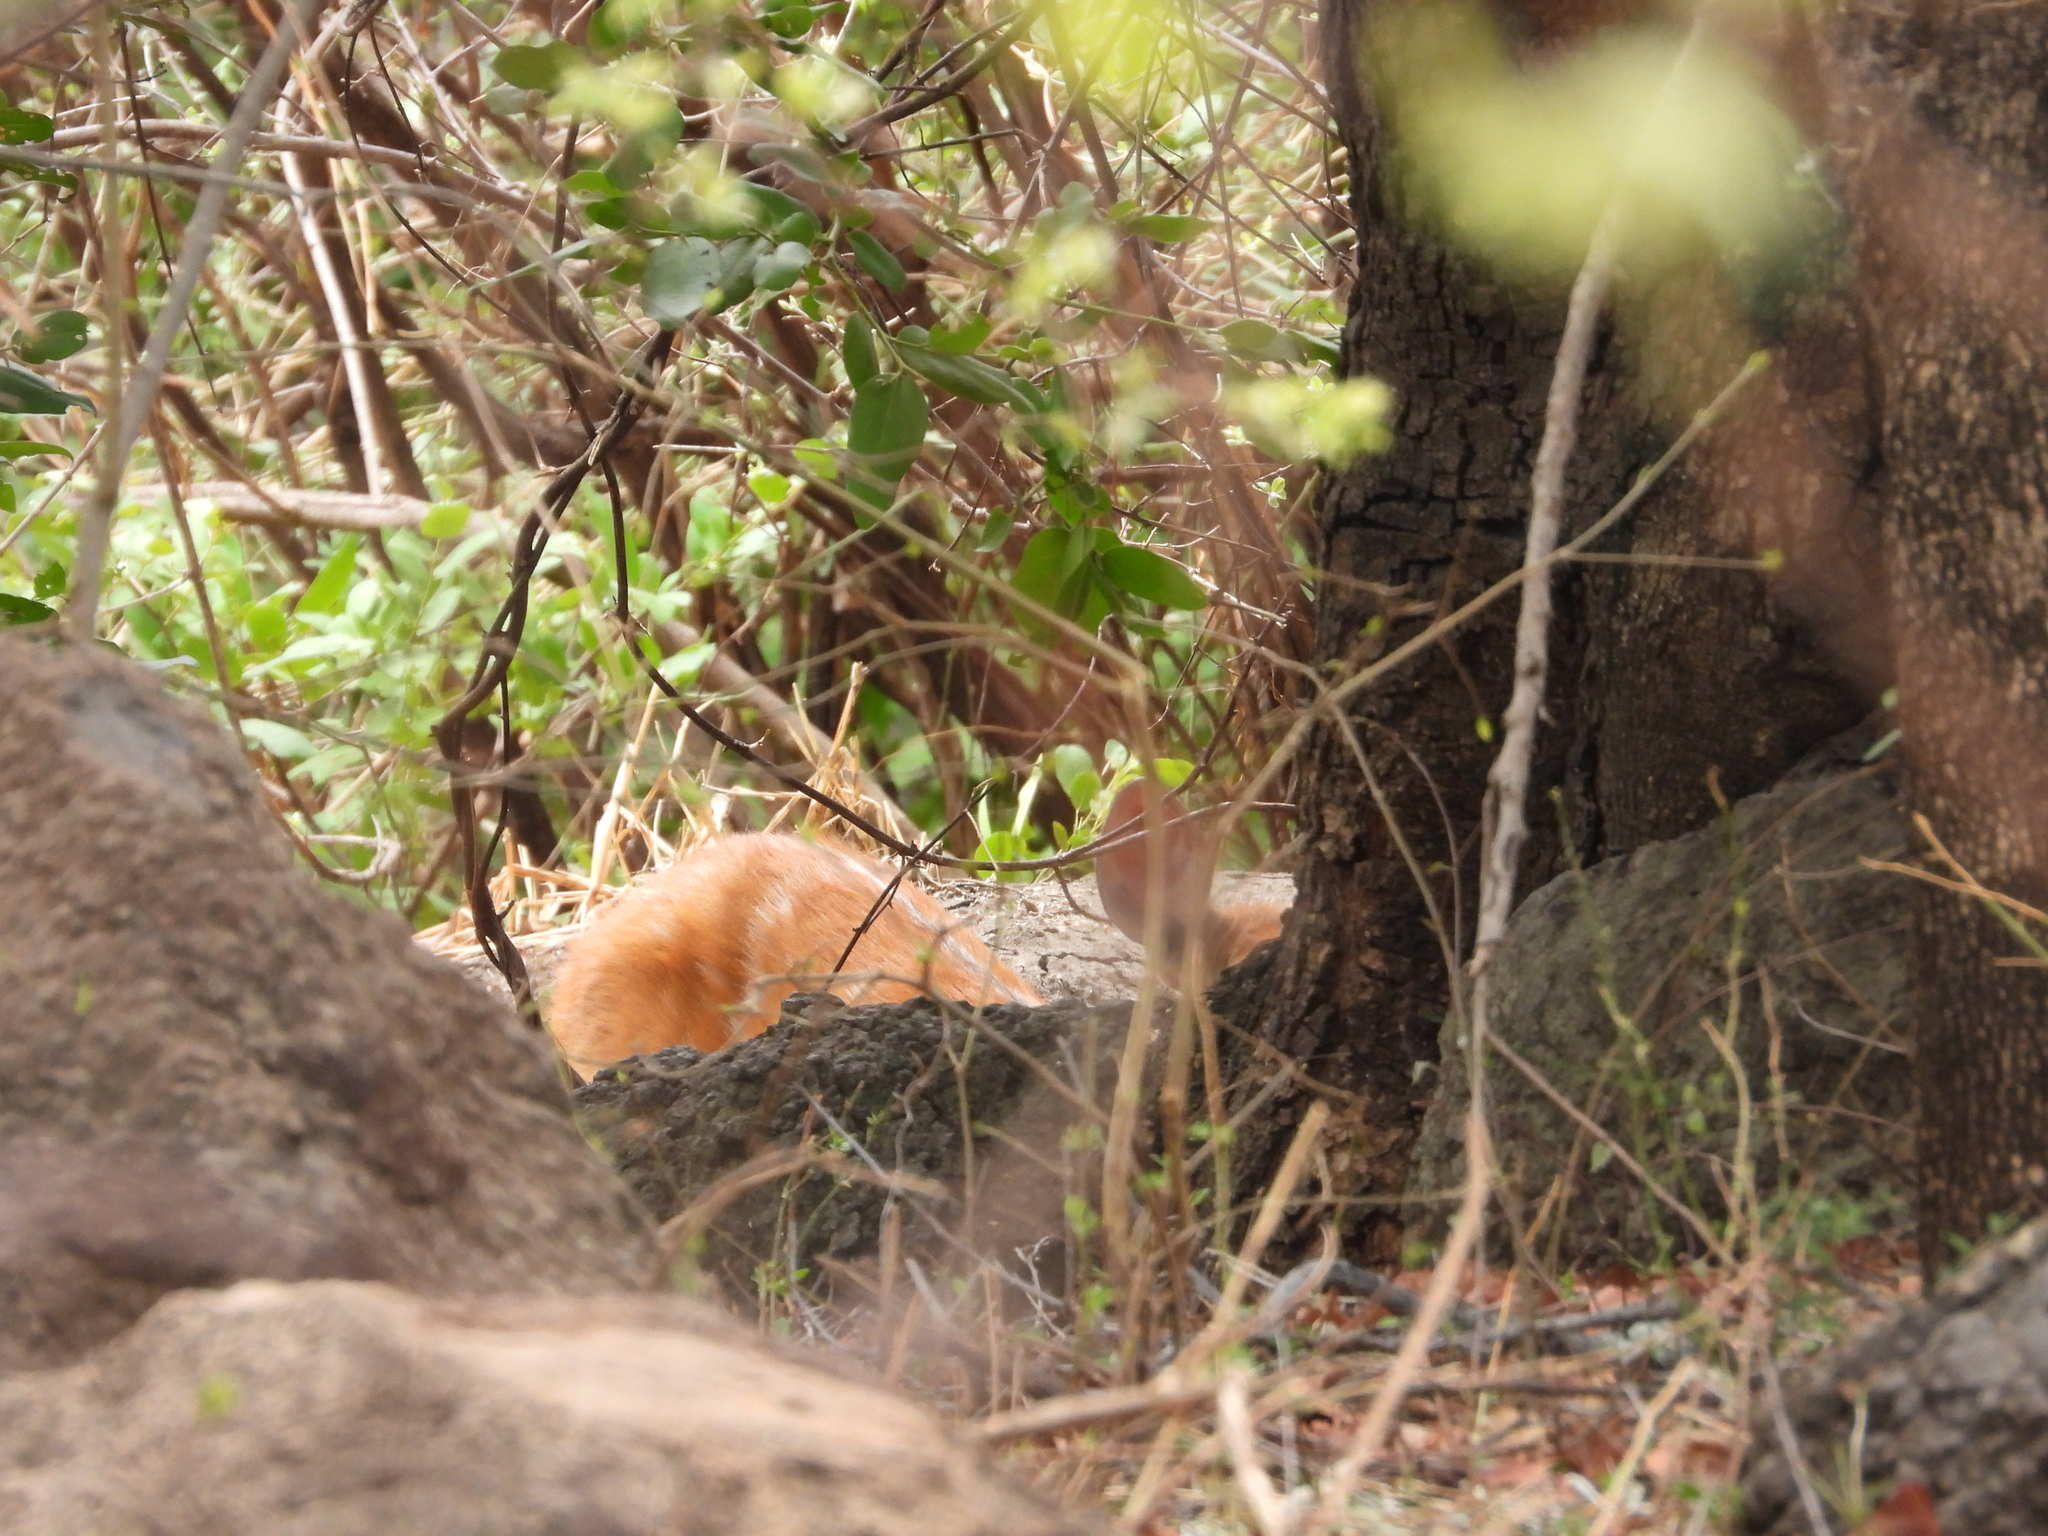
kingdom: Animalia
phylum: Chordata
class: Mammalia
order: Artiodactyla
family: Bovidae
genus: Tragelaphus
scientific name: Tragelaphus scriptus
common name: Bushbuck
